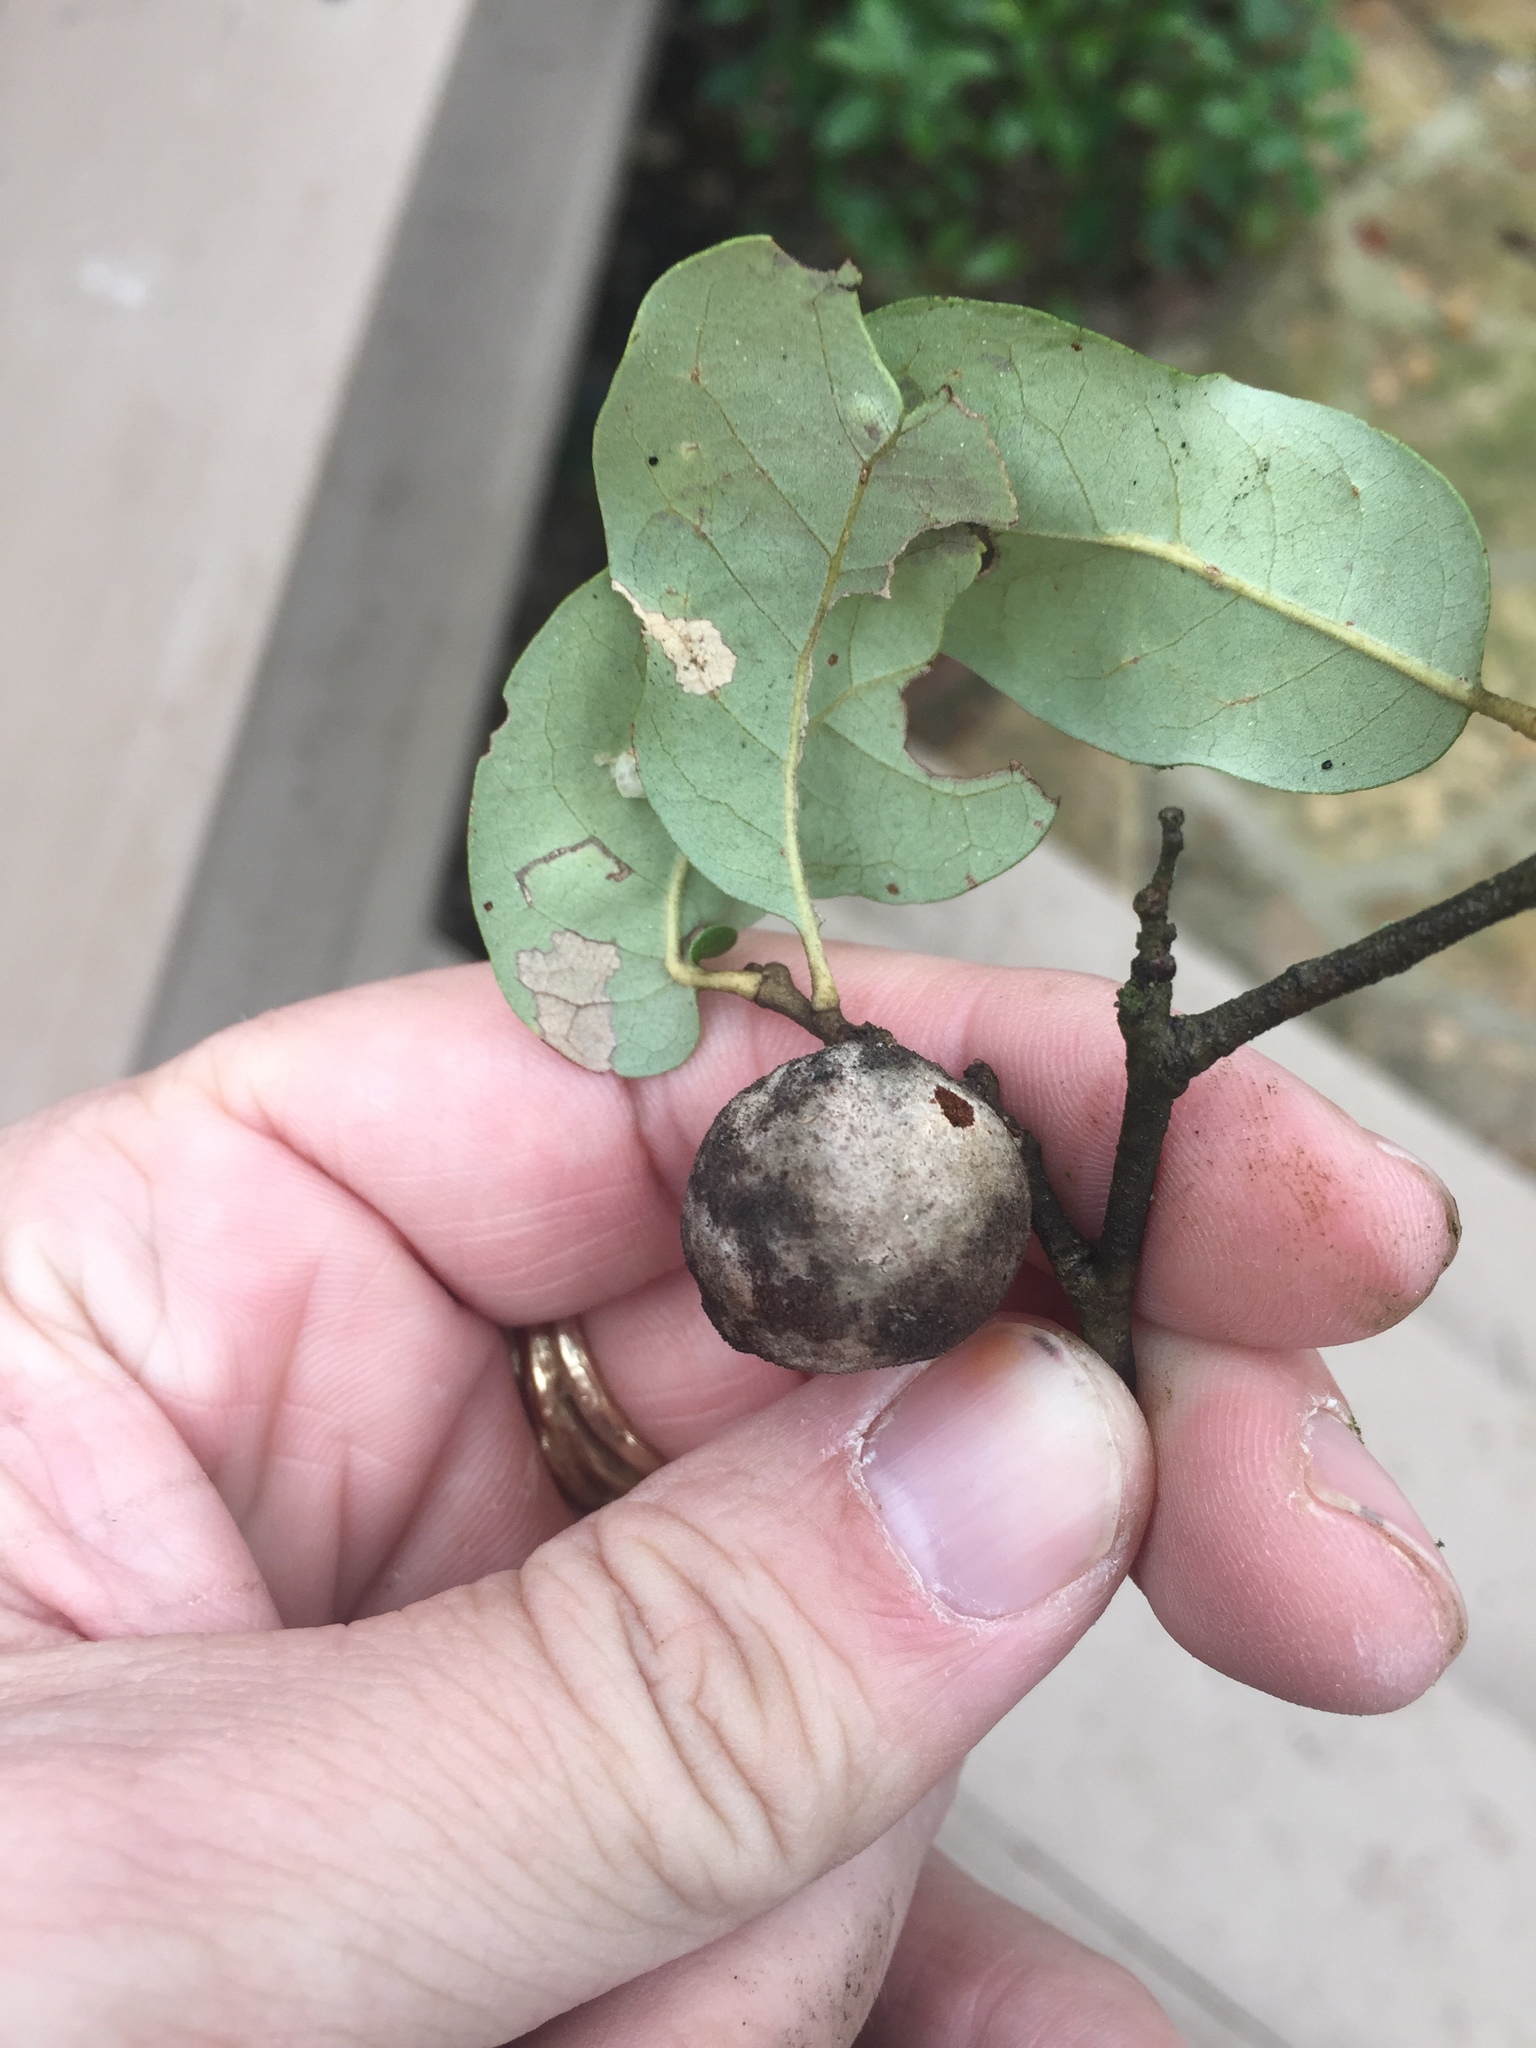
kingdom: Animalia
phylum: Arthropoda
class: Insecta
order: Hymenoptera
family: Cynipidae
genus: Disholcaspis
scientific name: Disholcaspis
